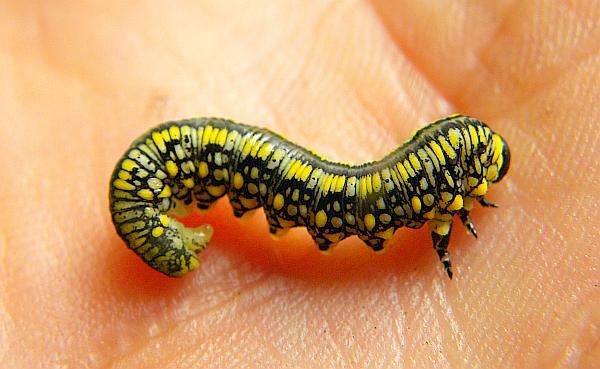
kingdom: Animalia
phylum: Arthropoda
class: Insecta
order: Hymenoptera
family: Diprionidae
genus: Diprion
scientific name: Diprion similis
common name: Pine sawfly
